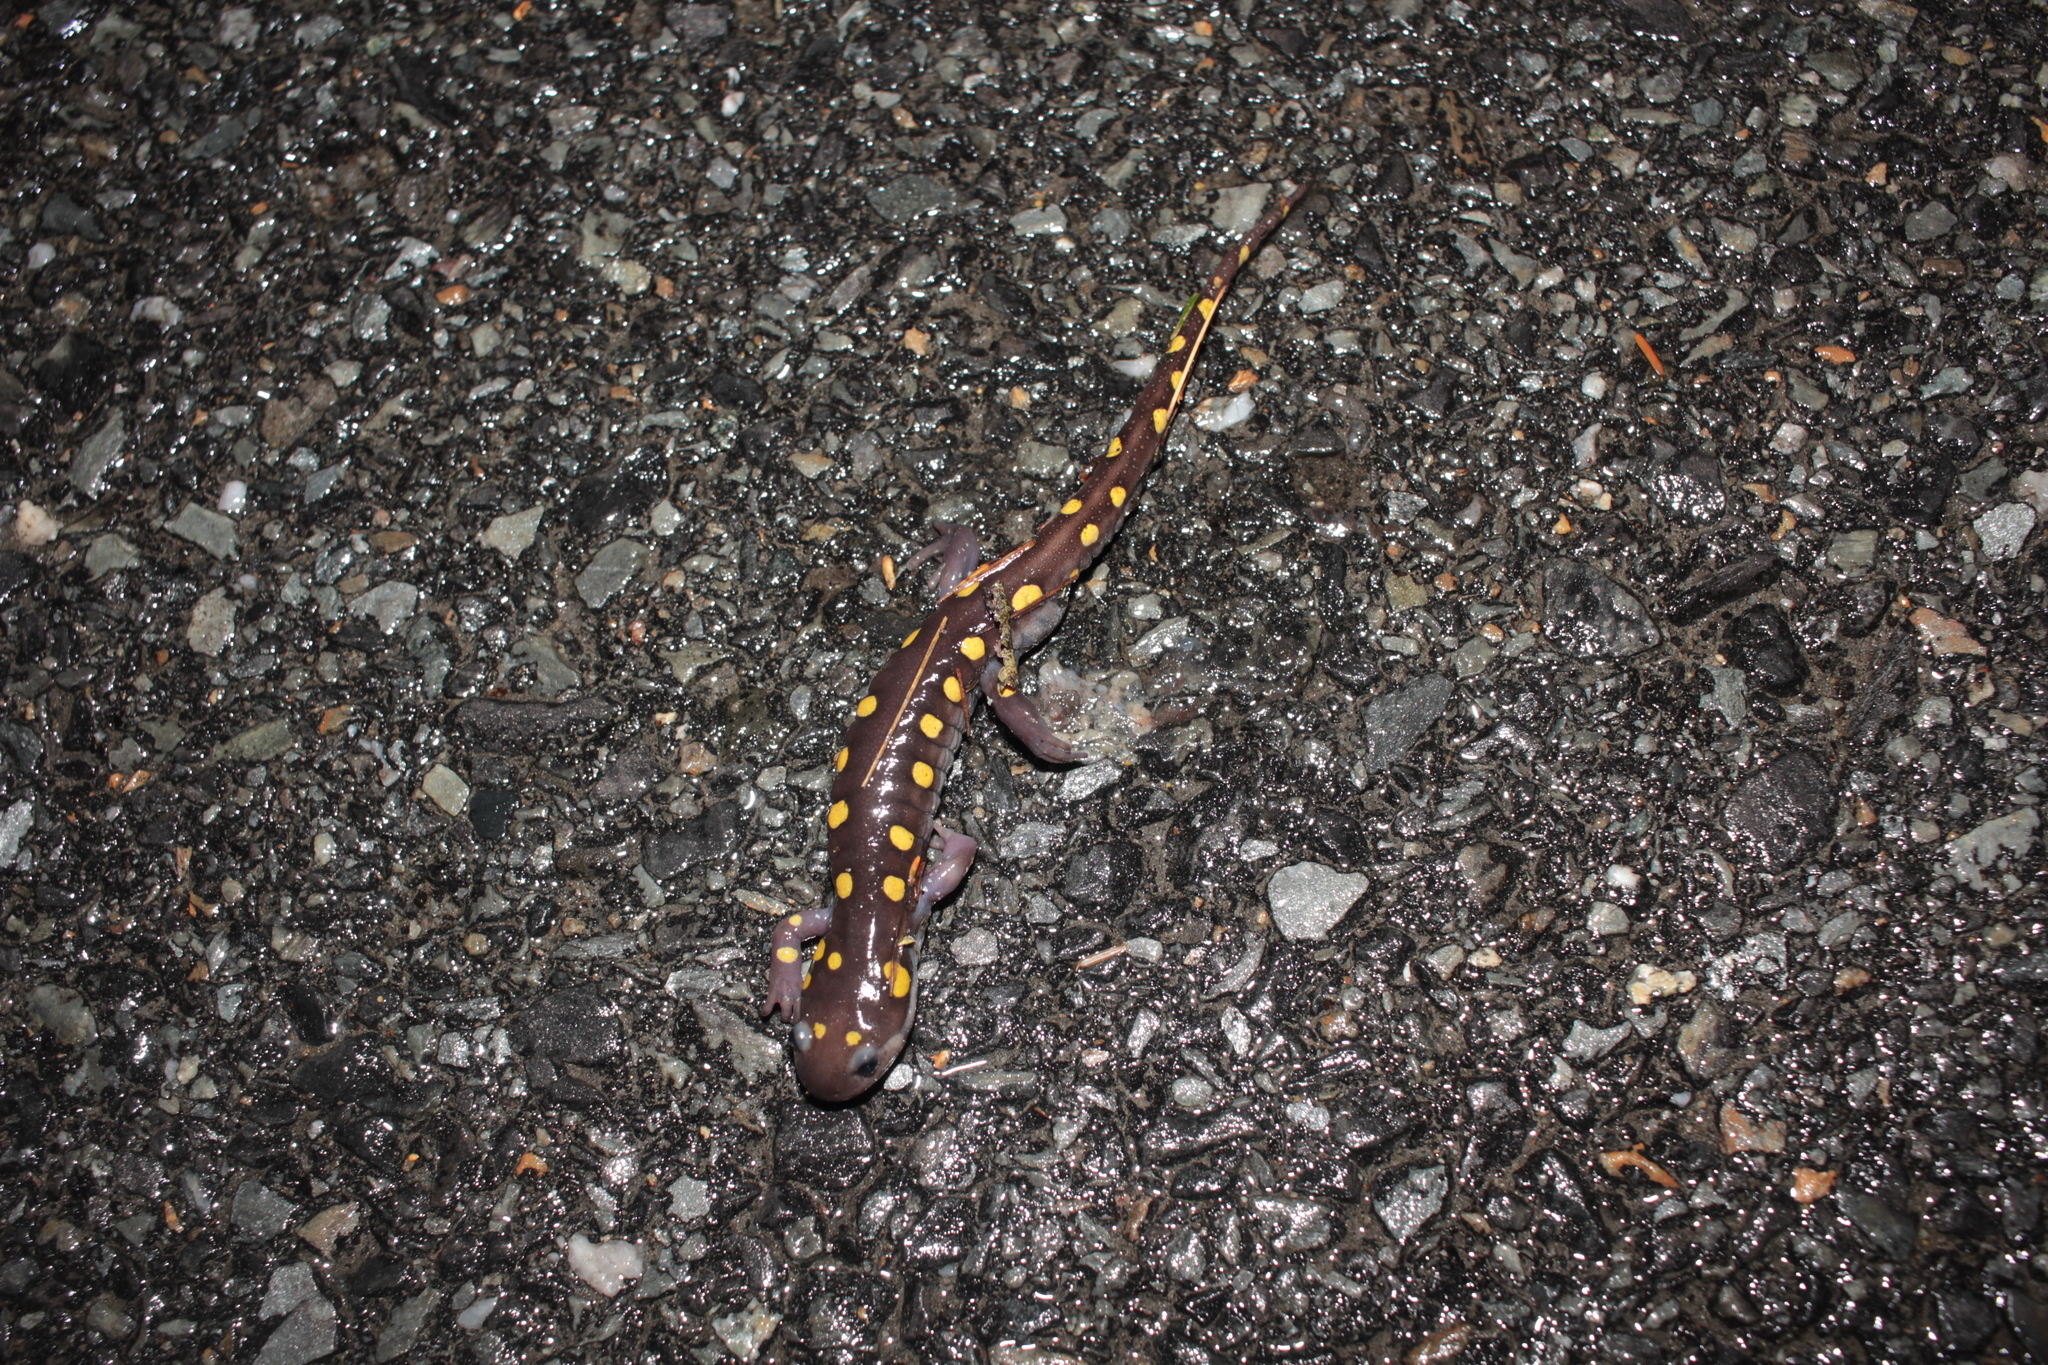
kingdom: Animalia
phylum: Chordata
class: Amphibia
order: Caudata
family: Ambystomatidae
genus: Ambystoma
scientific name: Ambystoma maculatum
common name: Spotted salamander
